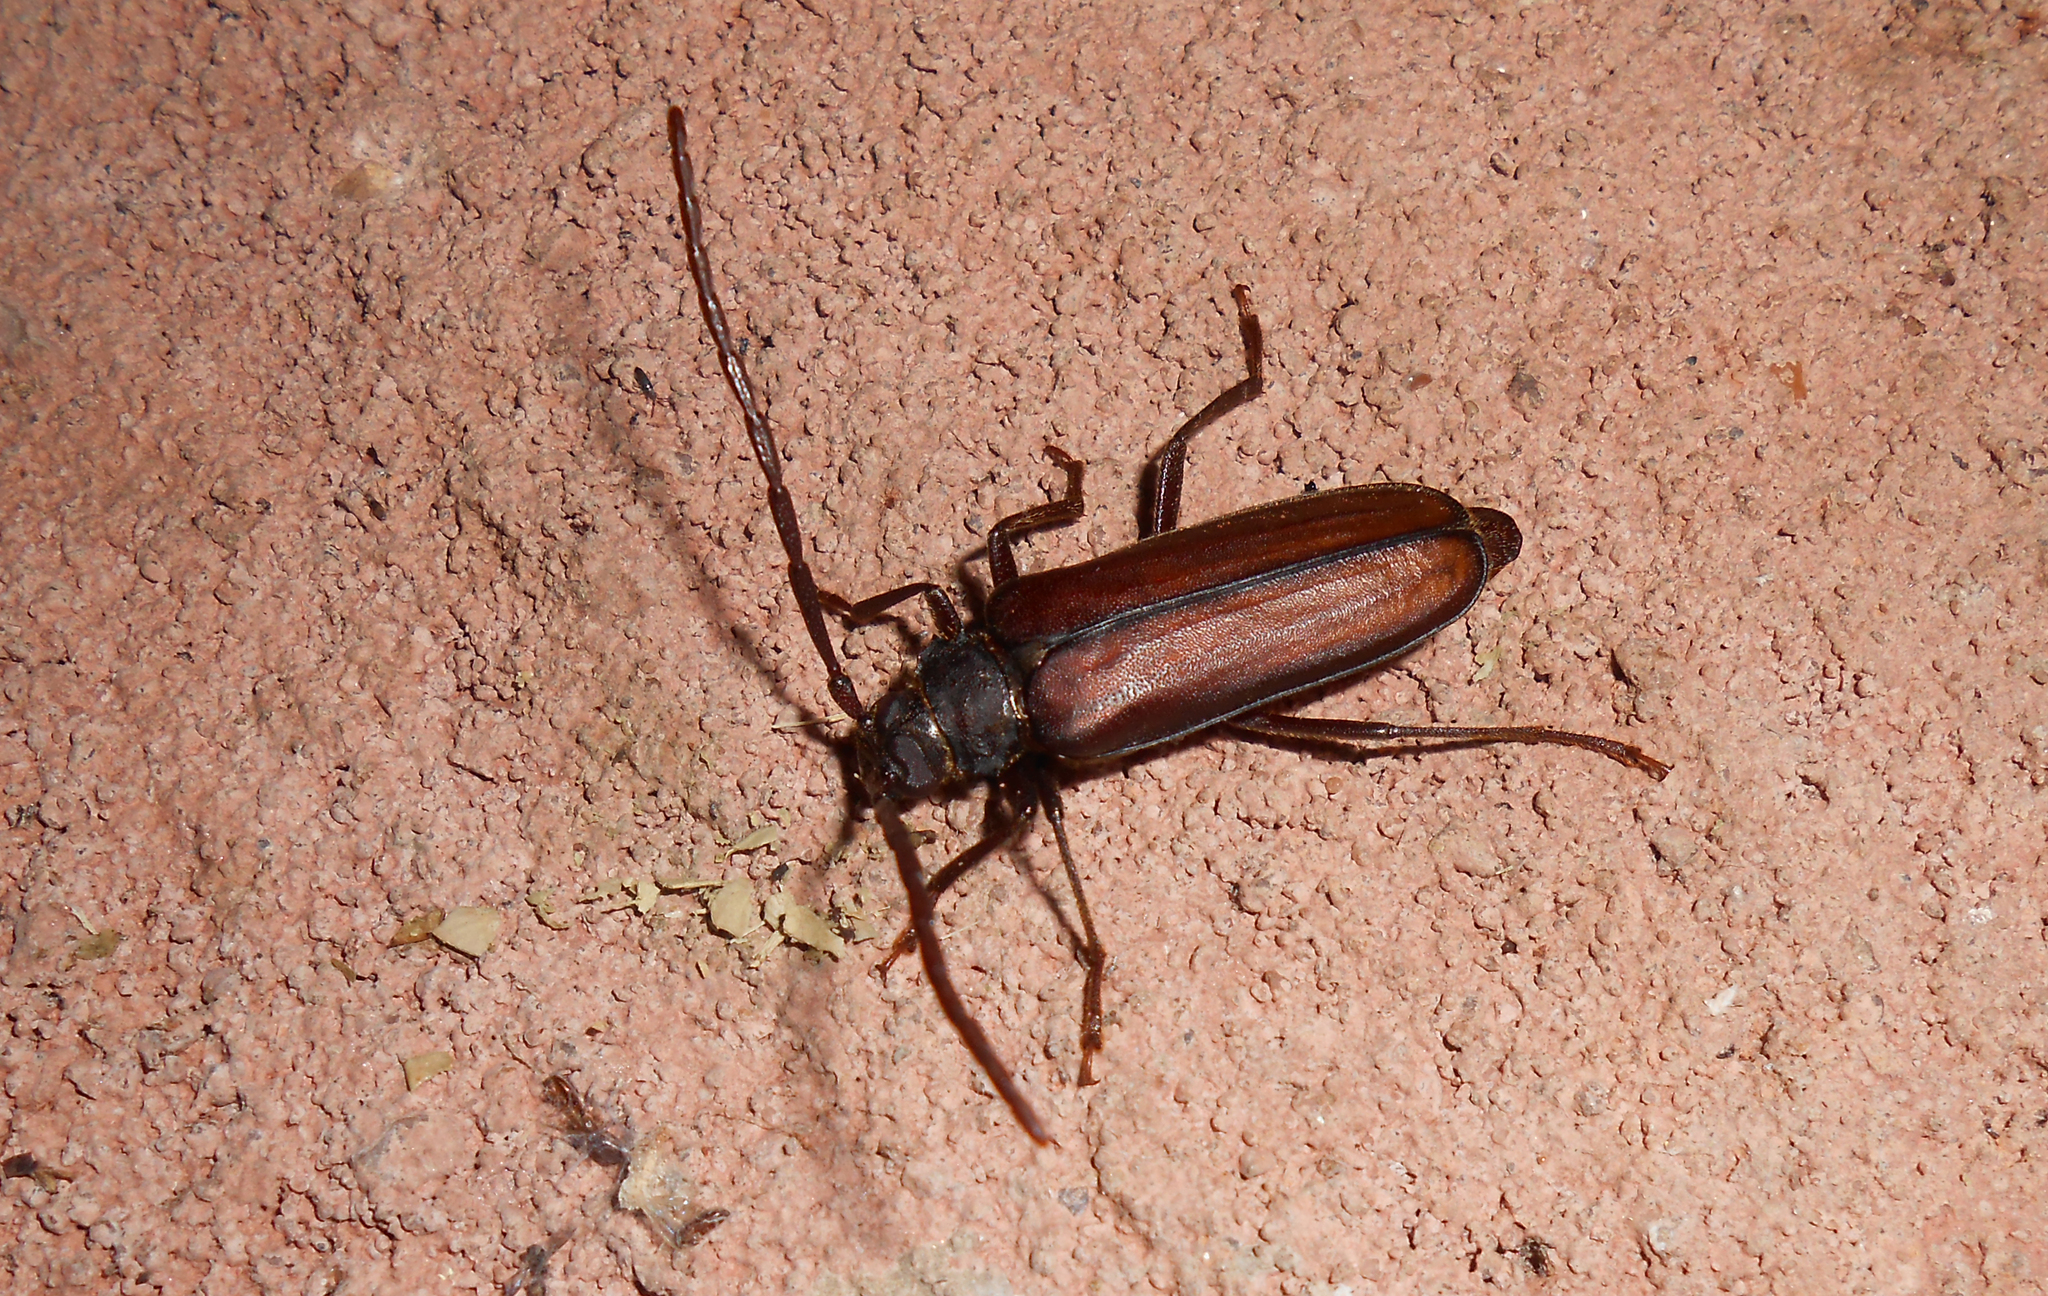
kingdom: Animalia
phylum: Arthropoda
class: Insecta
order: Coleoptera
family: Cerambycidae
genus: Meroscelisus
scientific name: Meroscelisus servillei
